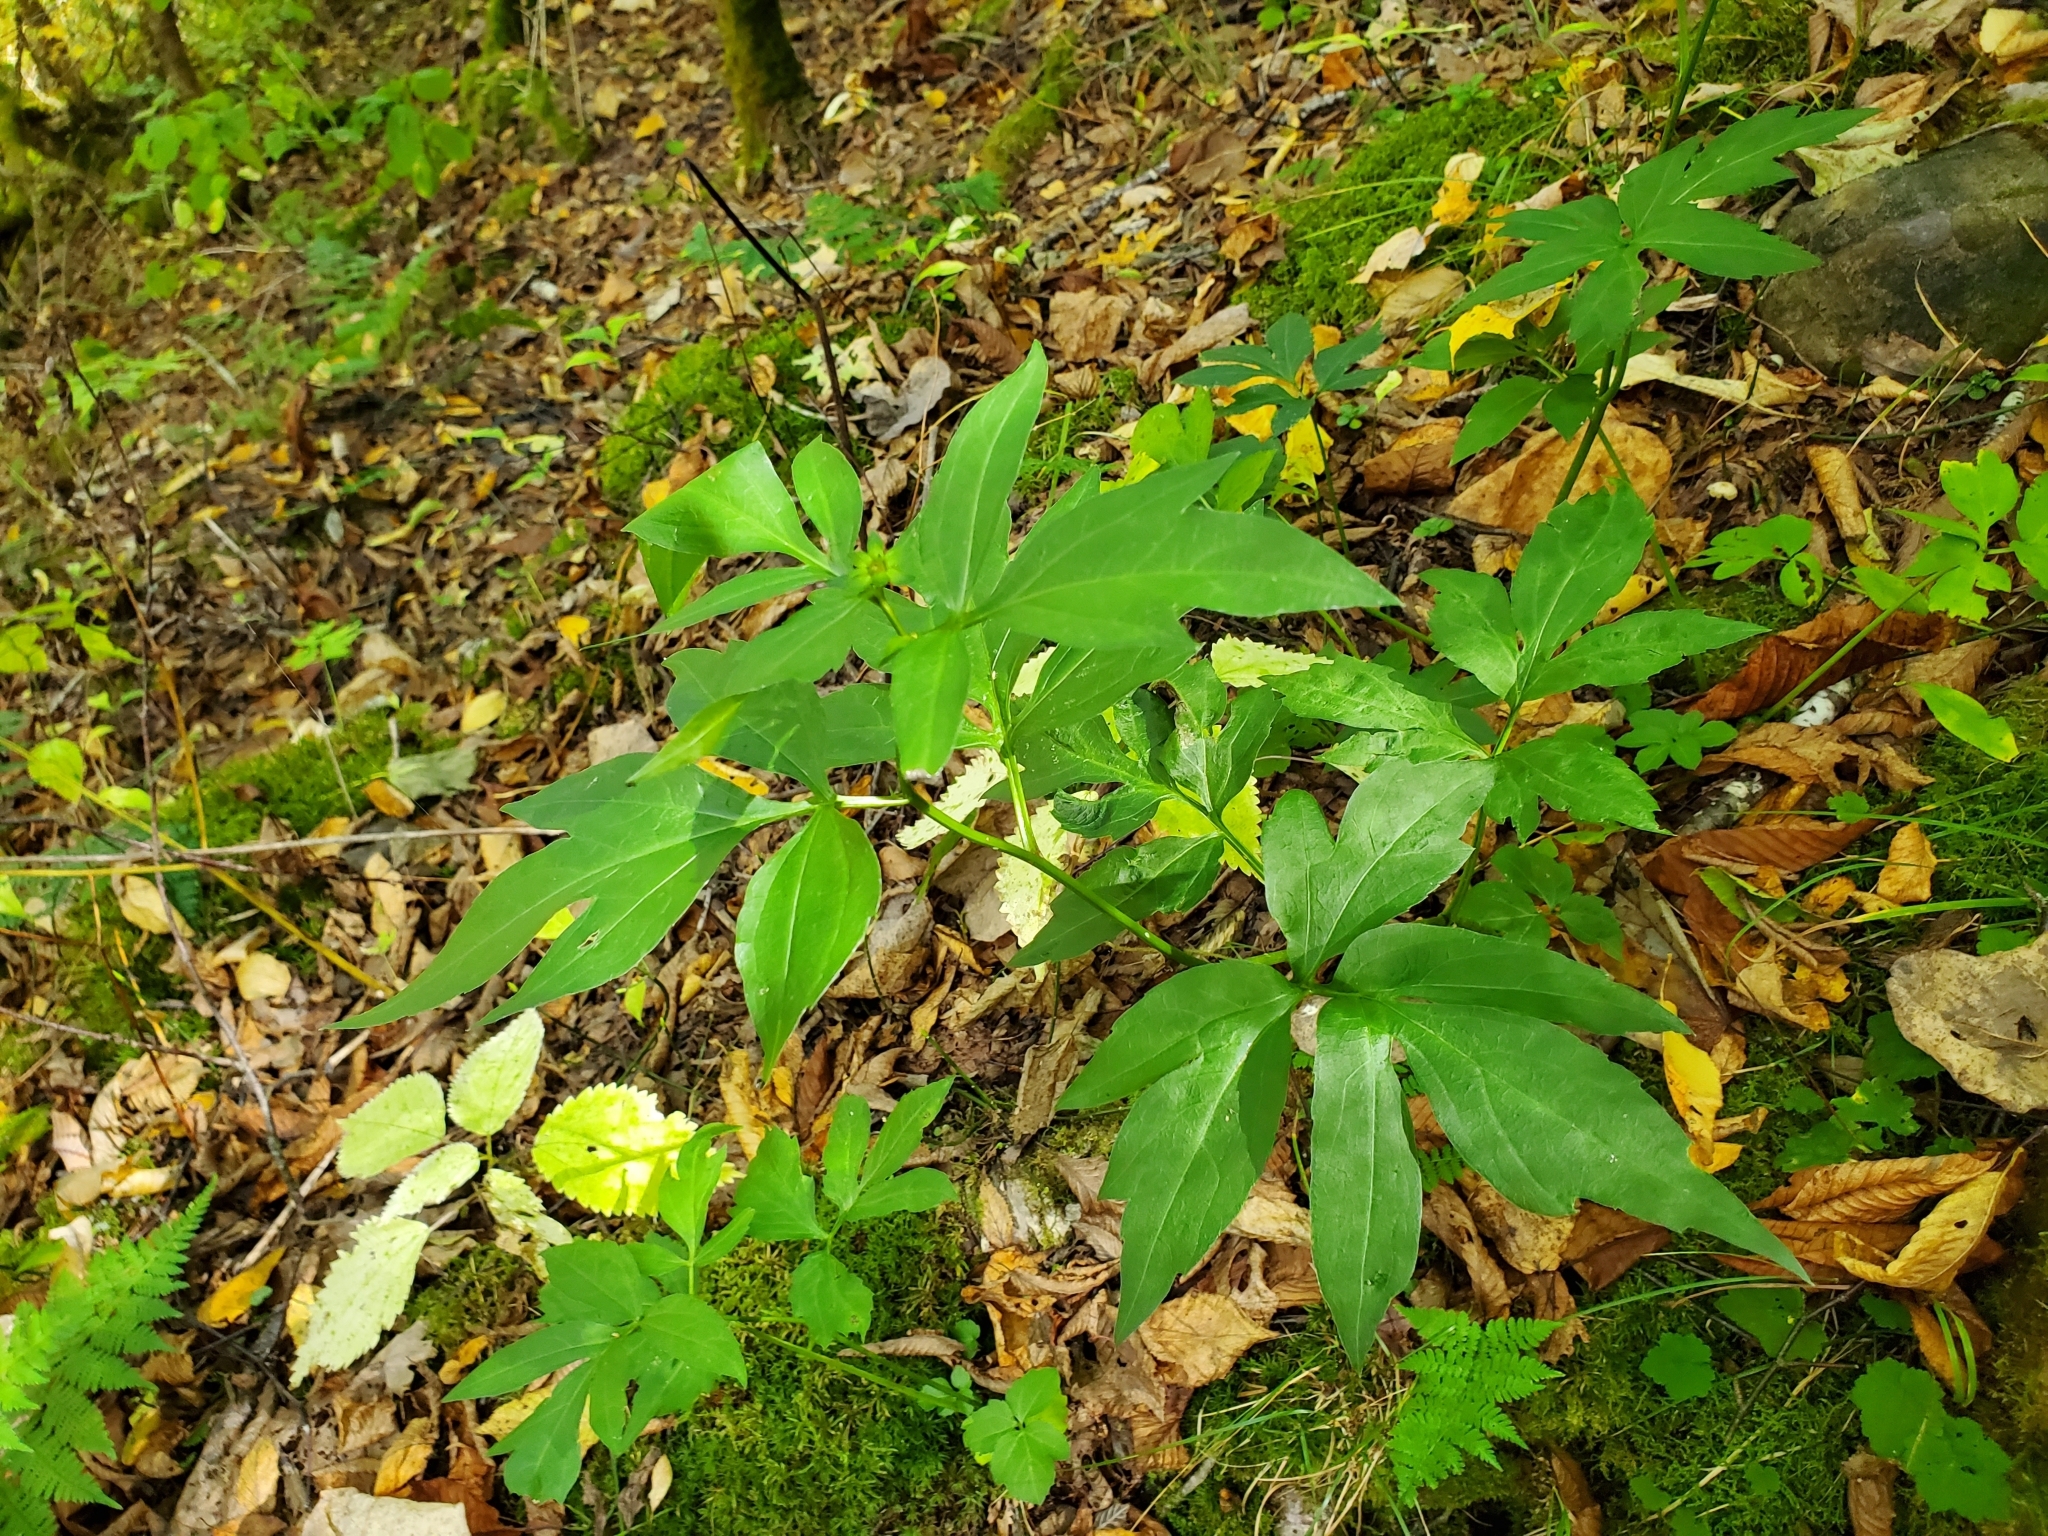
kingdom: Plantae
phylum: Tracheophyta
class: Magnoliopsida
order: Asterales
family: Asteraceae
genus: Rudbeckia
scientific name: Rudbeckia laciniata
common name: Coneflower
